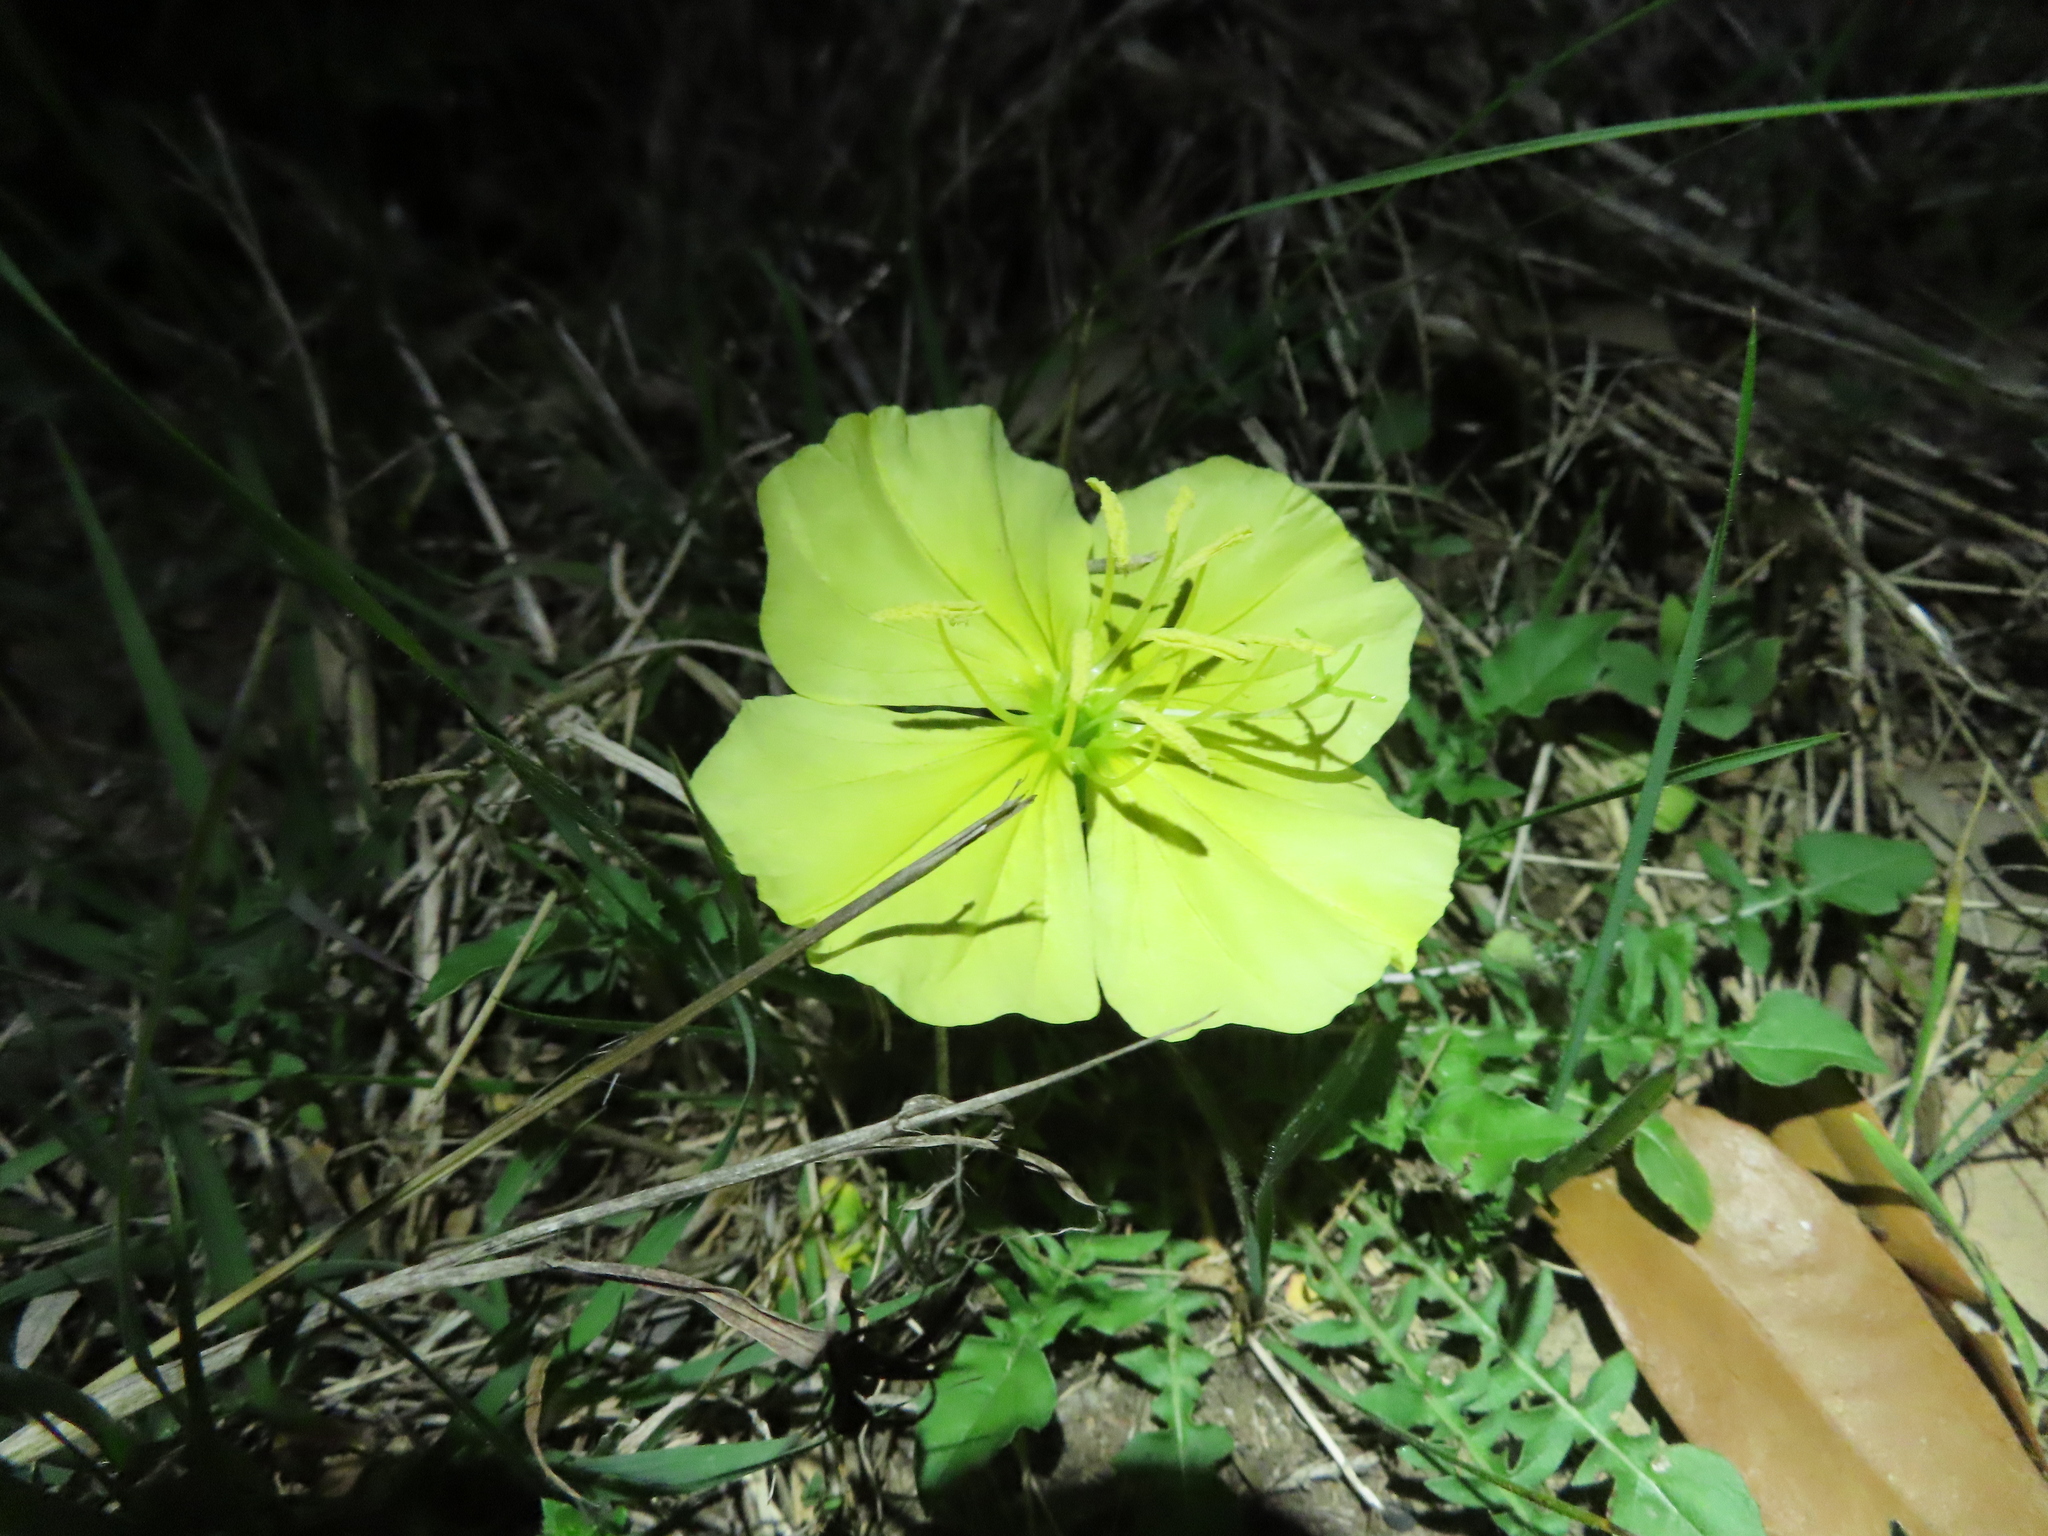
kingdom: Plantae
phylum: Tracheophyta
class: Magnoliopsida
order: Myrtales
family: Onagraceae
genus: Oenothera
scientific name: Oenothera triloba
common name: Sessile evening-primrose
